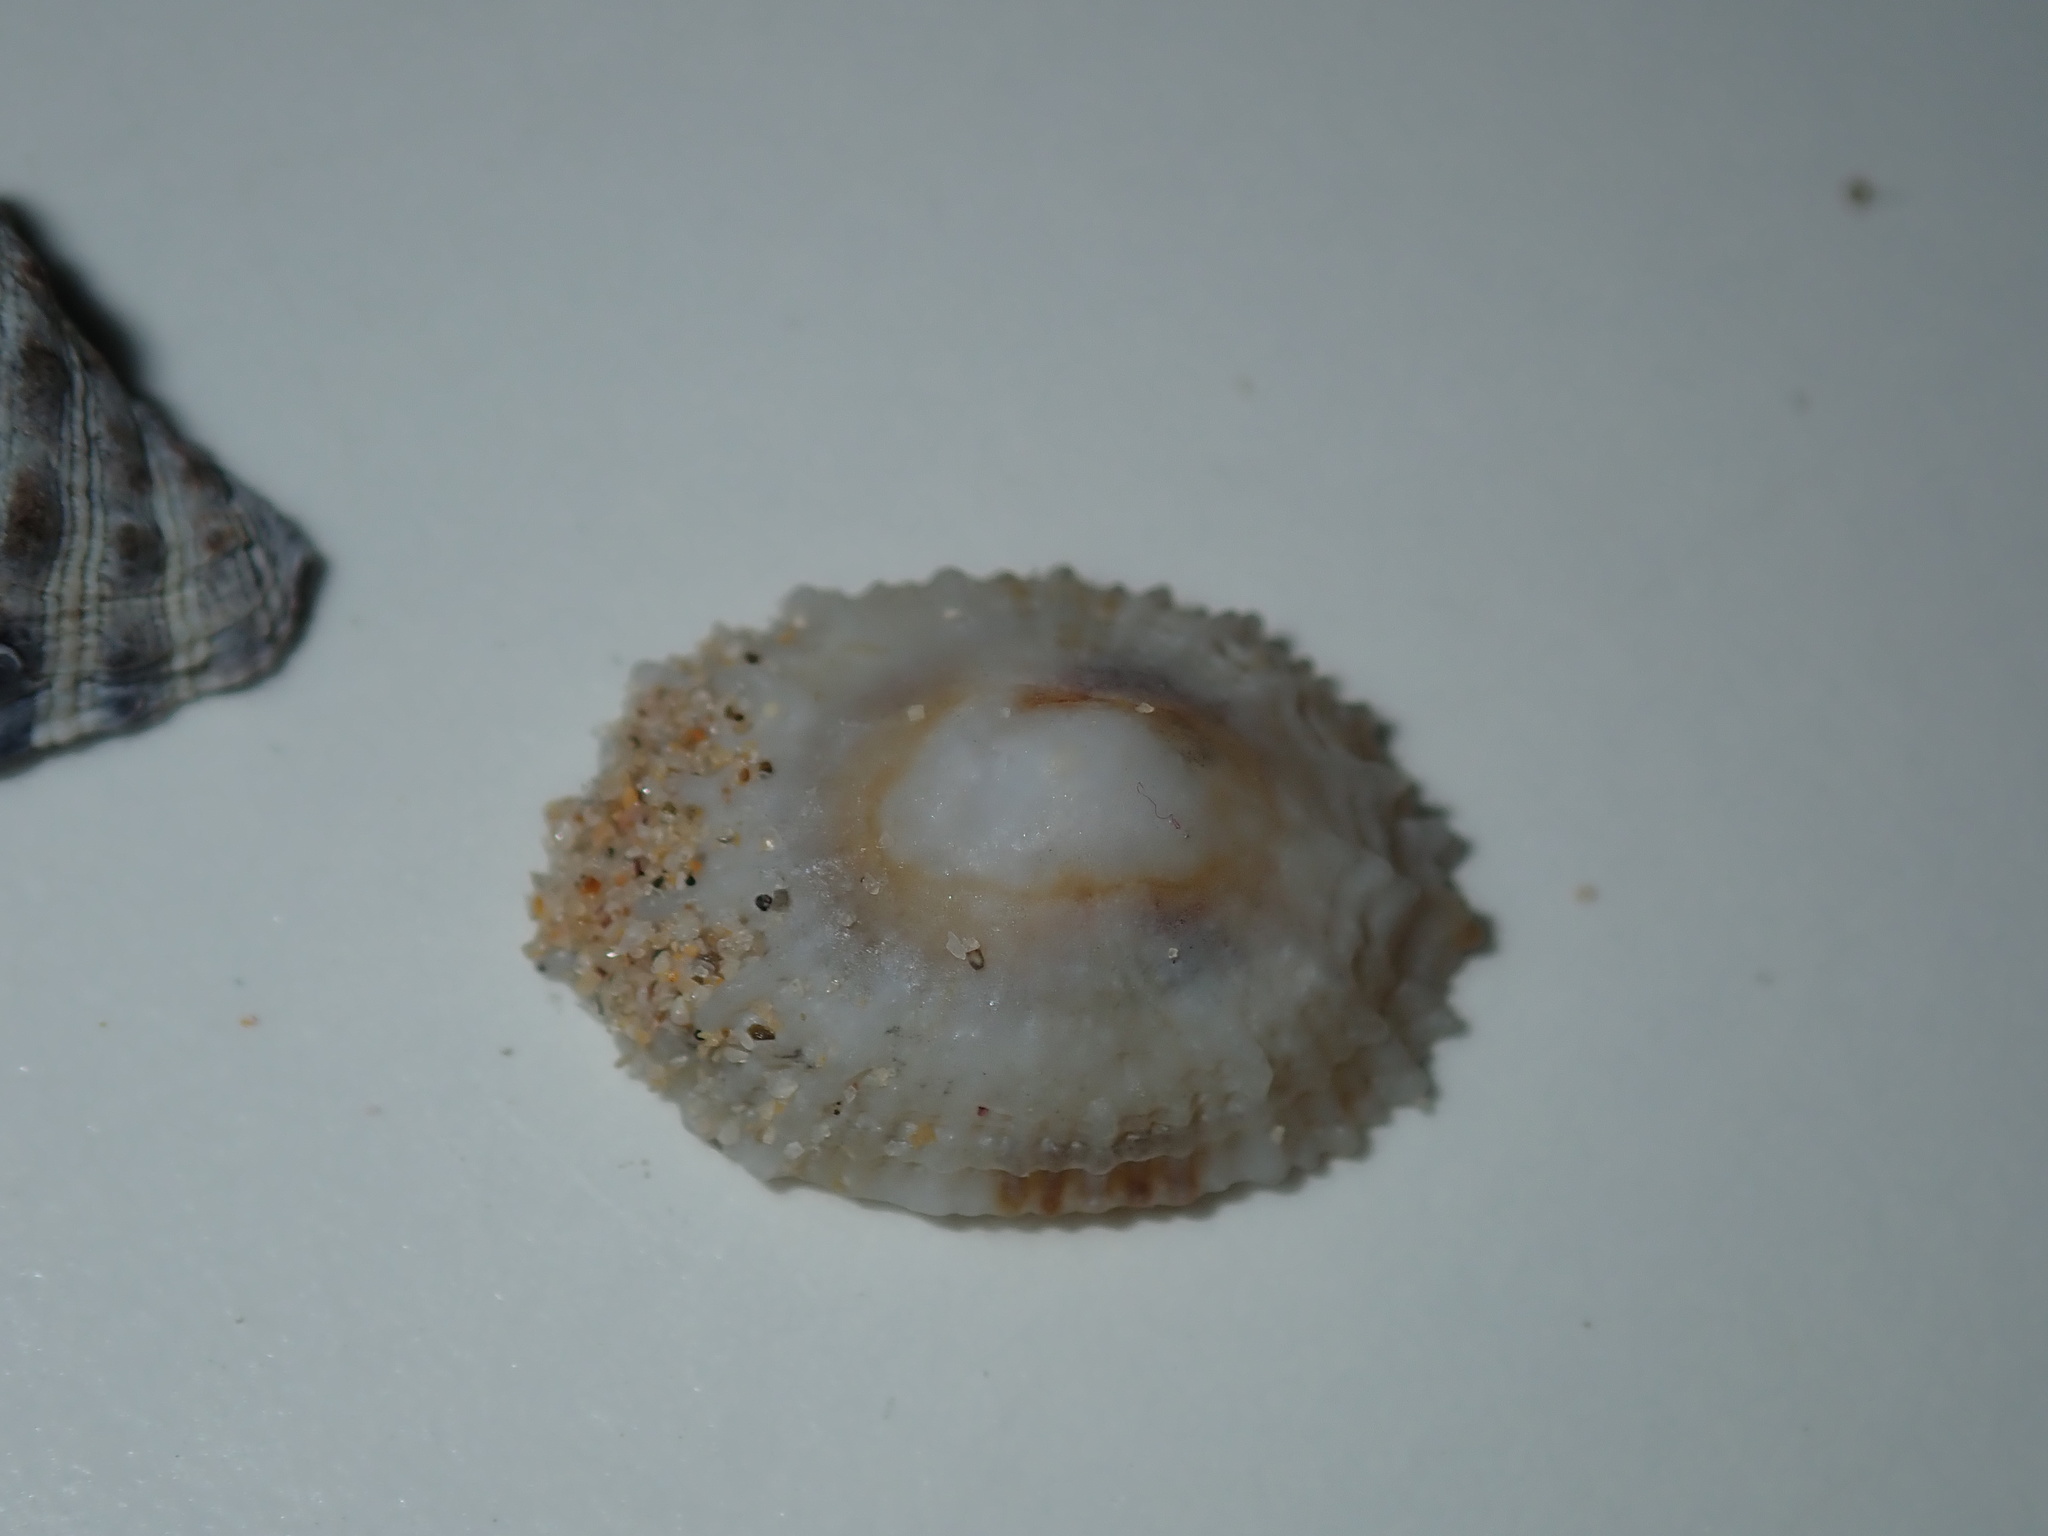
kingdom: Animalia
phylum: Mollusca
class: Gastropoda
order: Lepetellida
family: Fissurellidae
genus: Montfortula
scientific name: Montfortula rugosa
